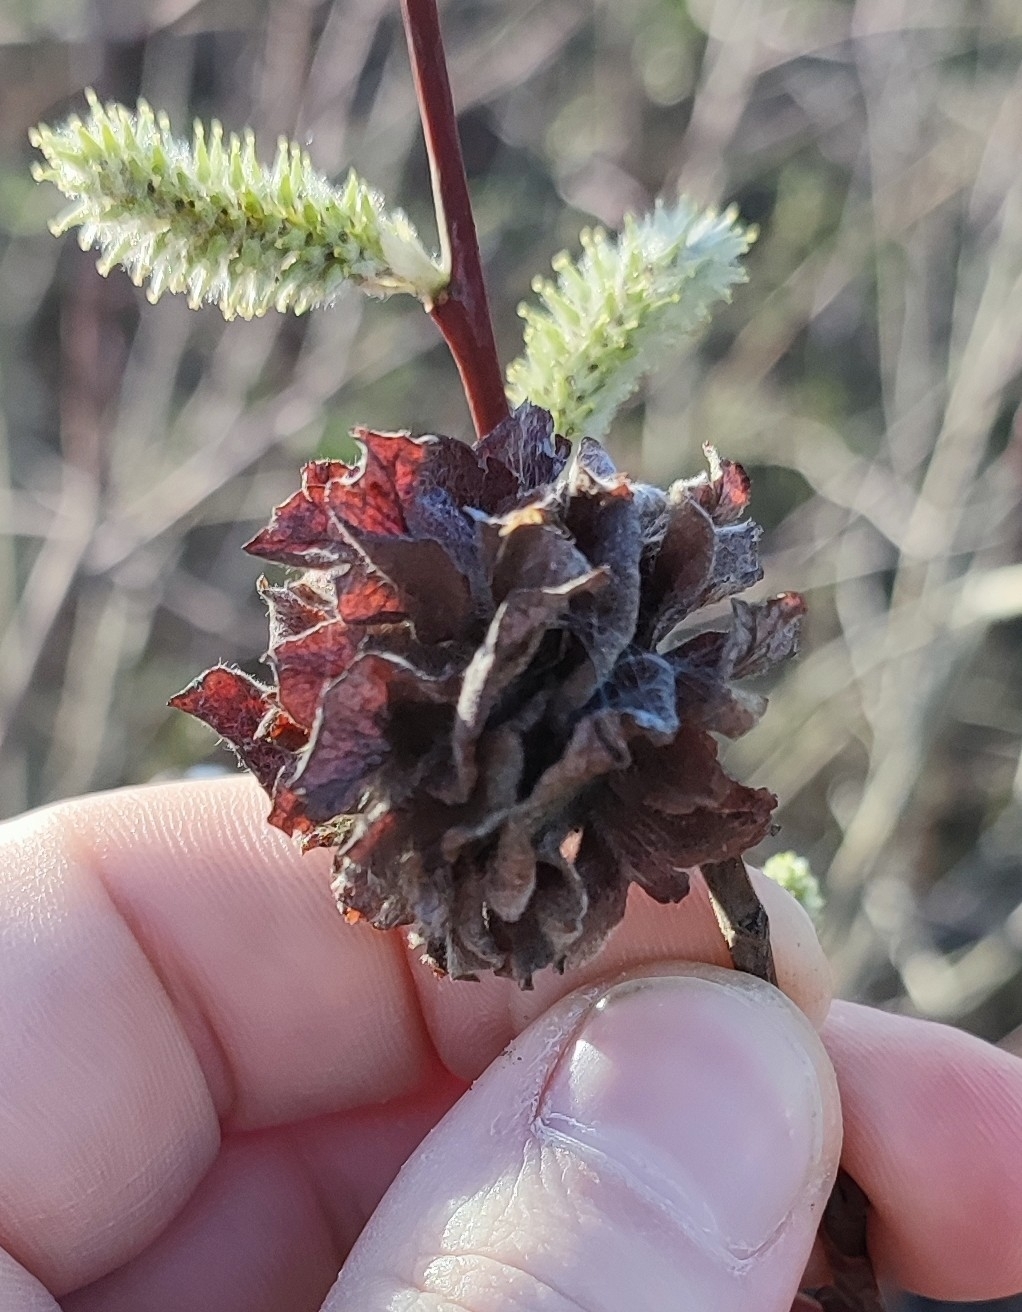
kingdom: Animalia
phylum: Arthropoda
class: Insecta
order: Diptera
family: Cecidomyiidae
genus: Rabdophaga
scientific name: Rabdophaga rosaria
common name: Willow rose gall midge
